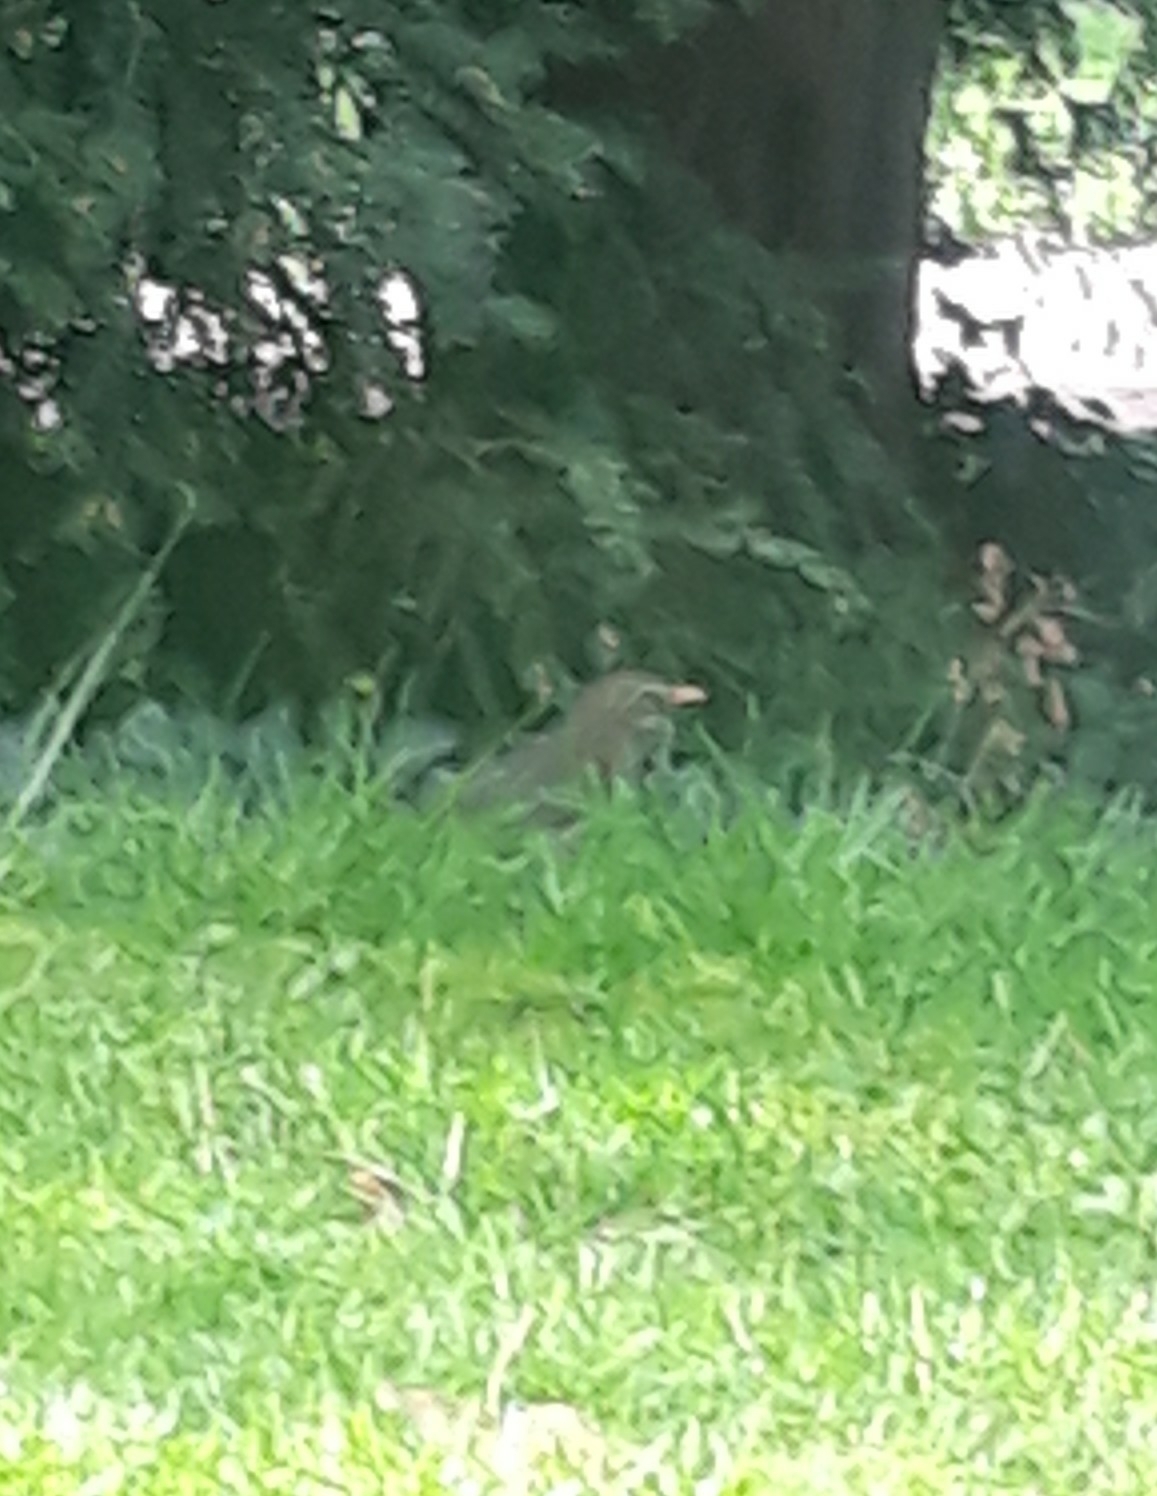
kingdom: Animalia
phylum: Chordata
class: Aves
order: Passeriformes
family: Turdidae
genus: Turdus
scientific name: Turdus merula
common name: Common blackbird
